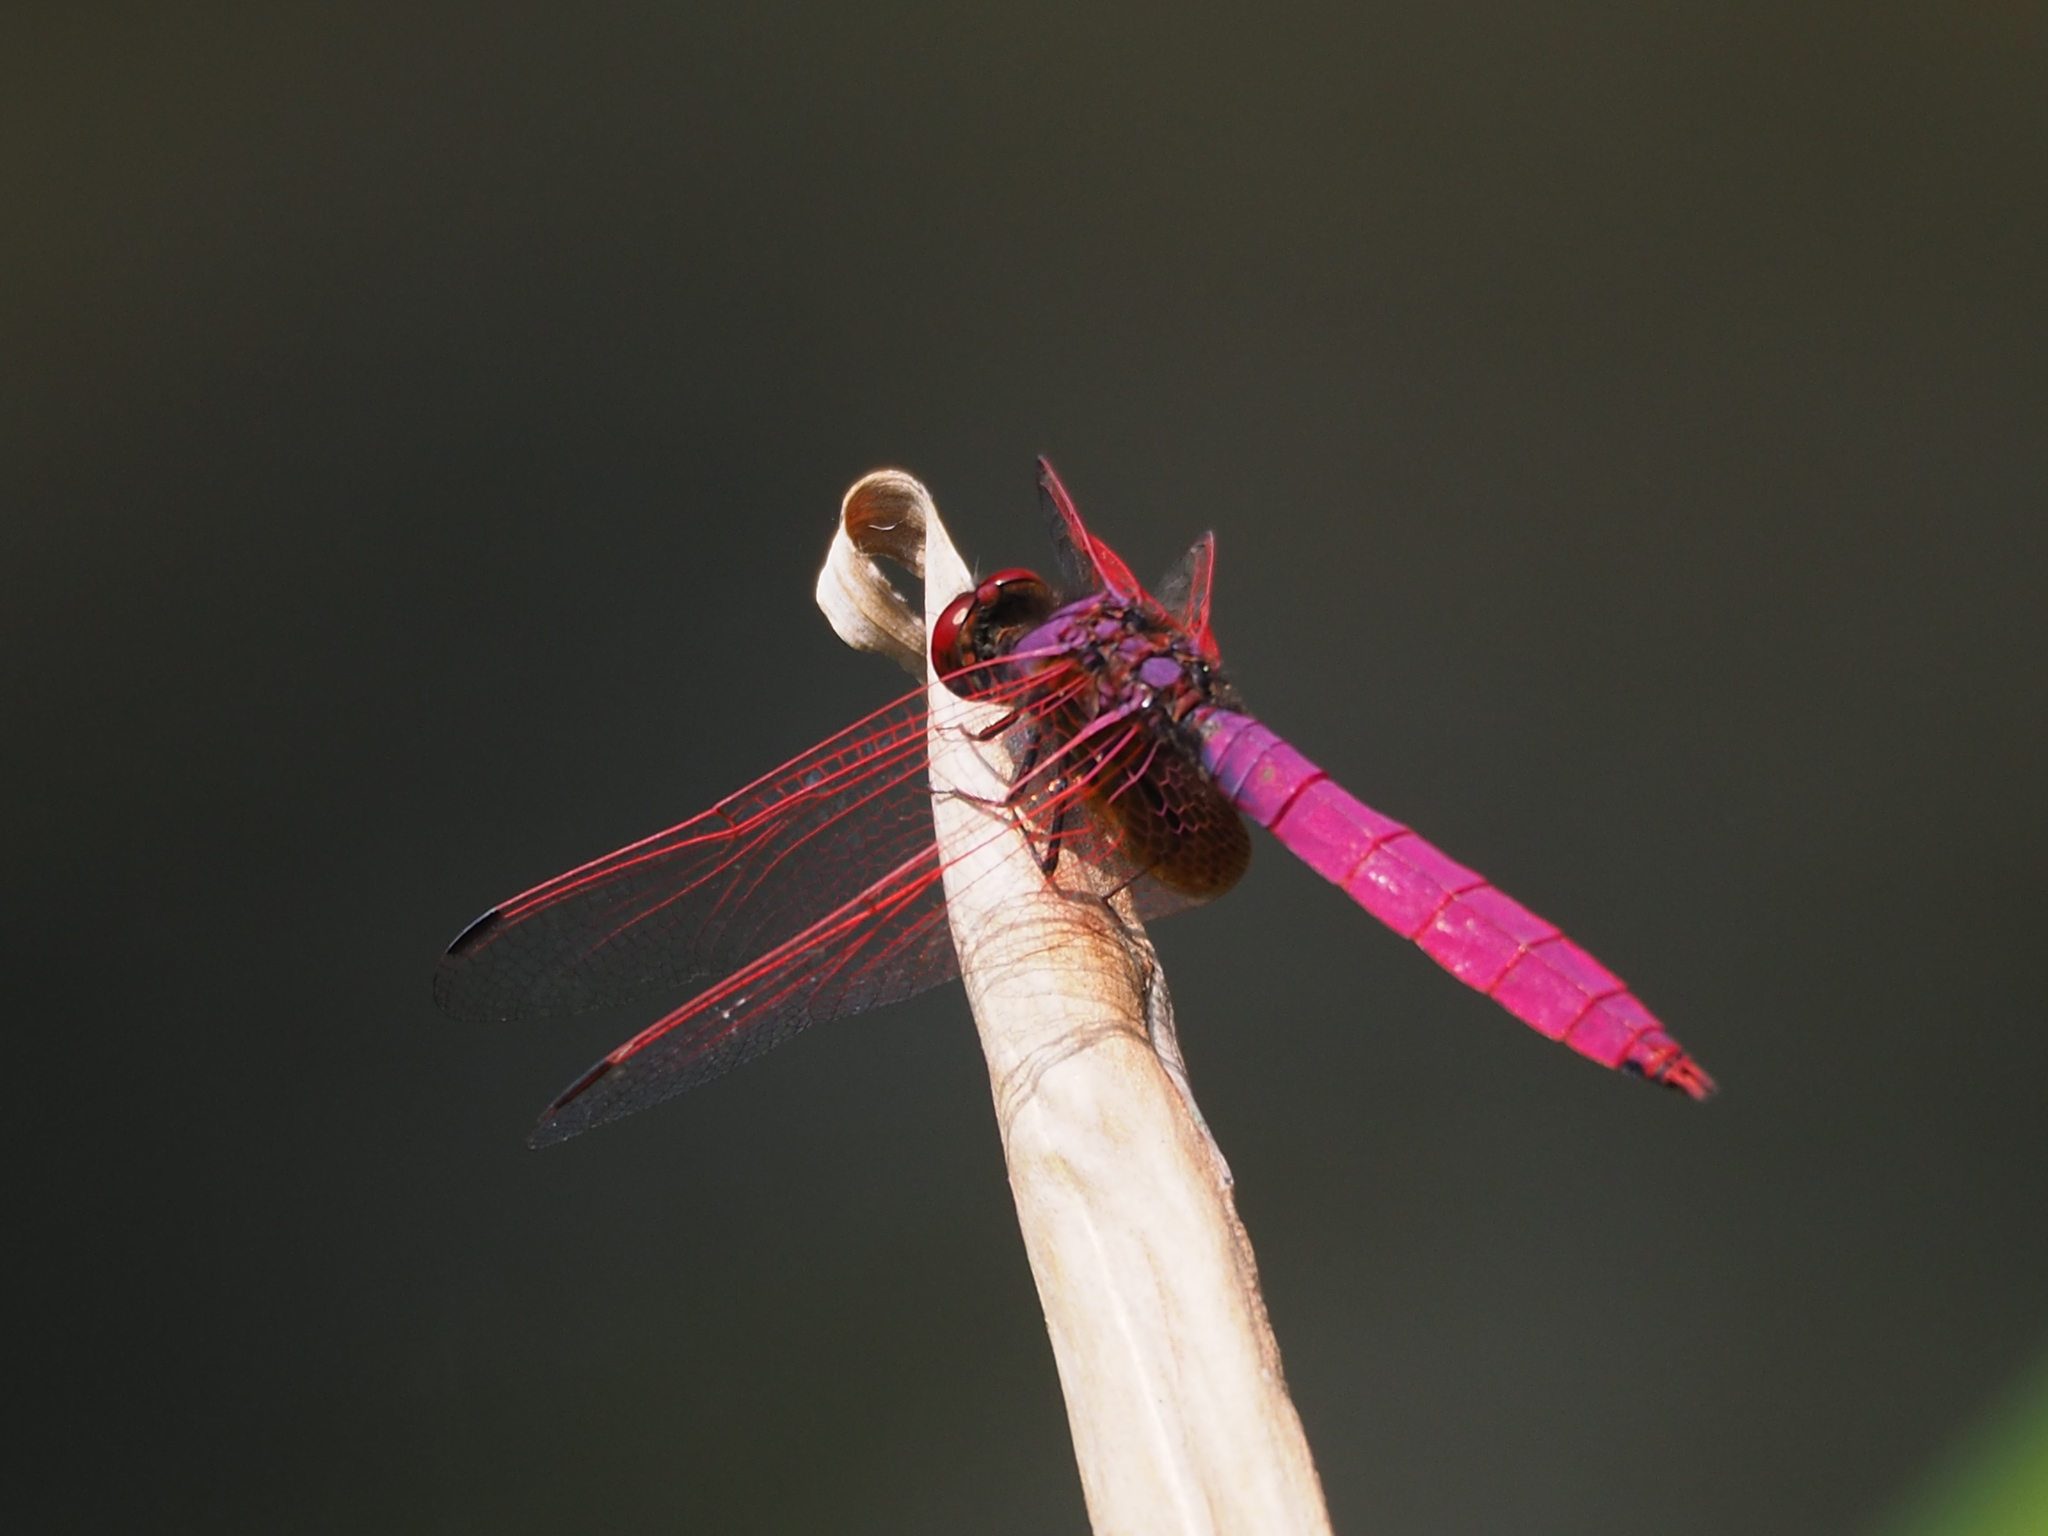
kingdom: Animalia
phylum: Arthropoda
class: Insecta
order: Odonata
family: Libellulidae
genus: Trithemis
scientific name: Trithemis aurora
